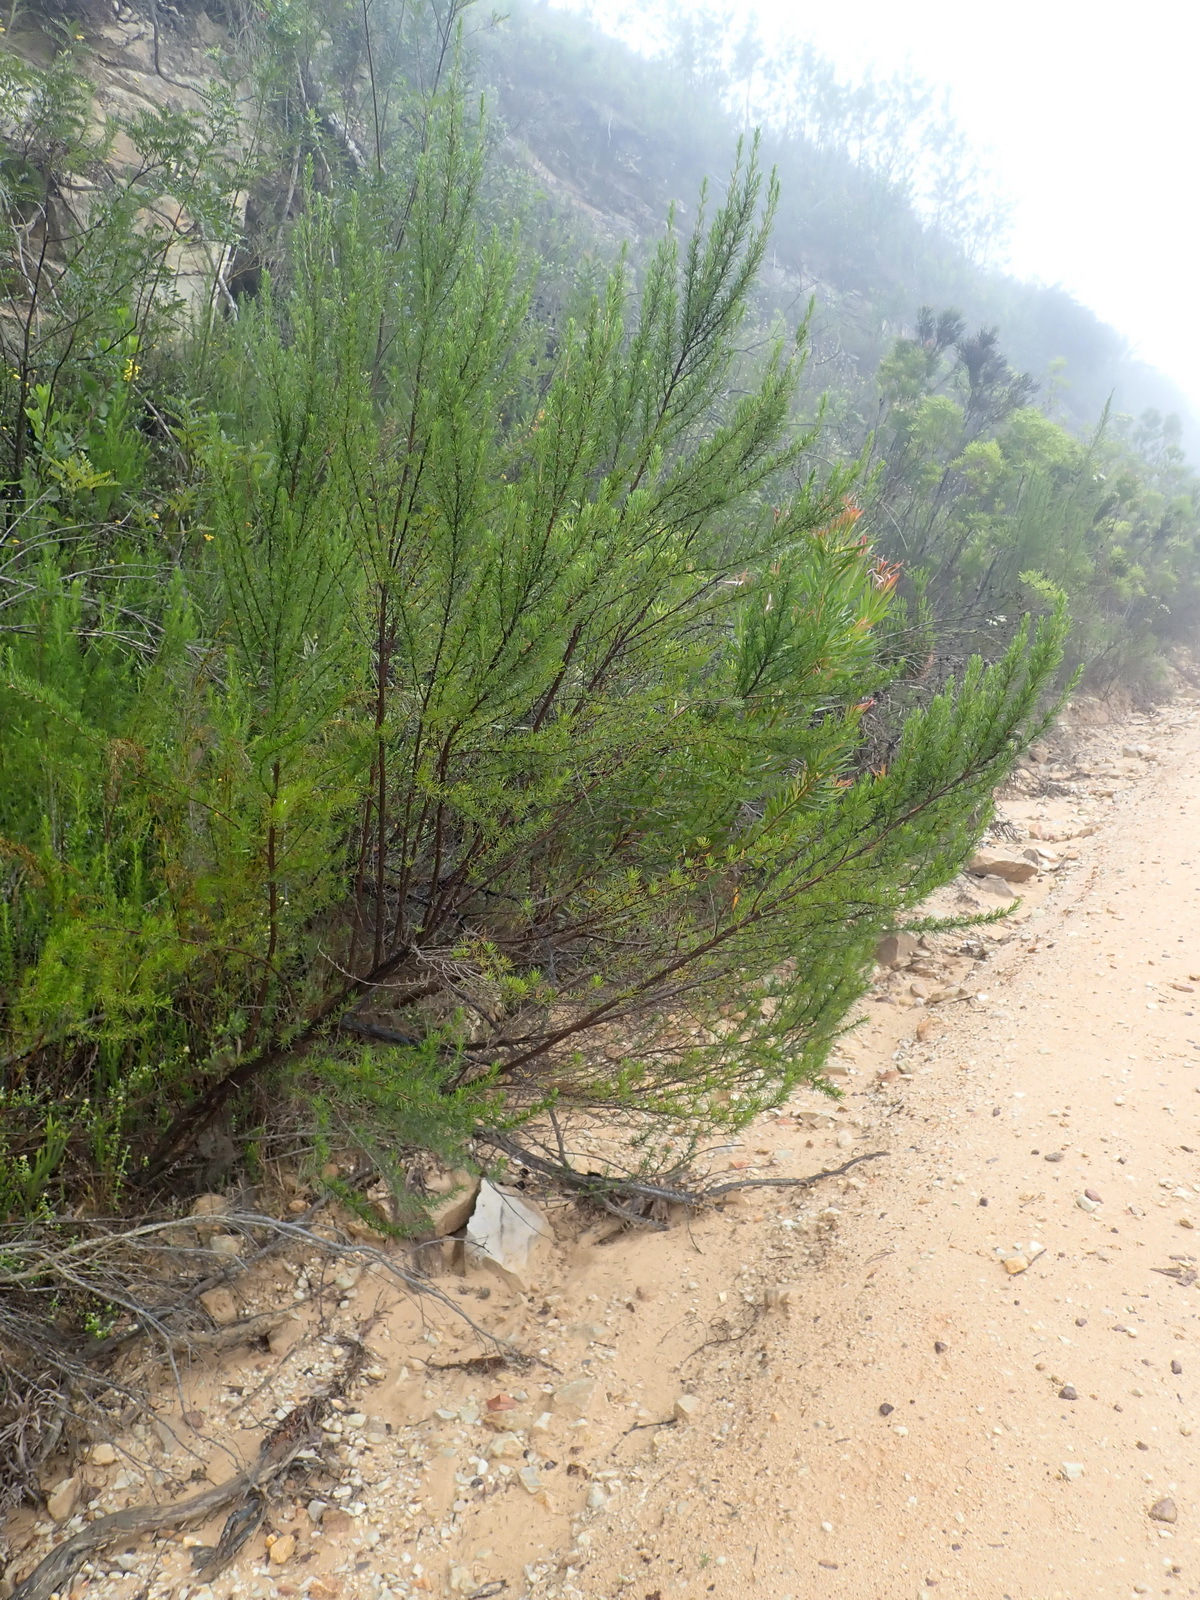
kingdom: Plantae
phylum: Tracheophyta
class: Magnoliopsida
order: Rosales
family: Rosaceae
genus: Cliffortia
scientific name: Cliffortia burchellii
